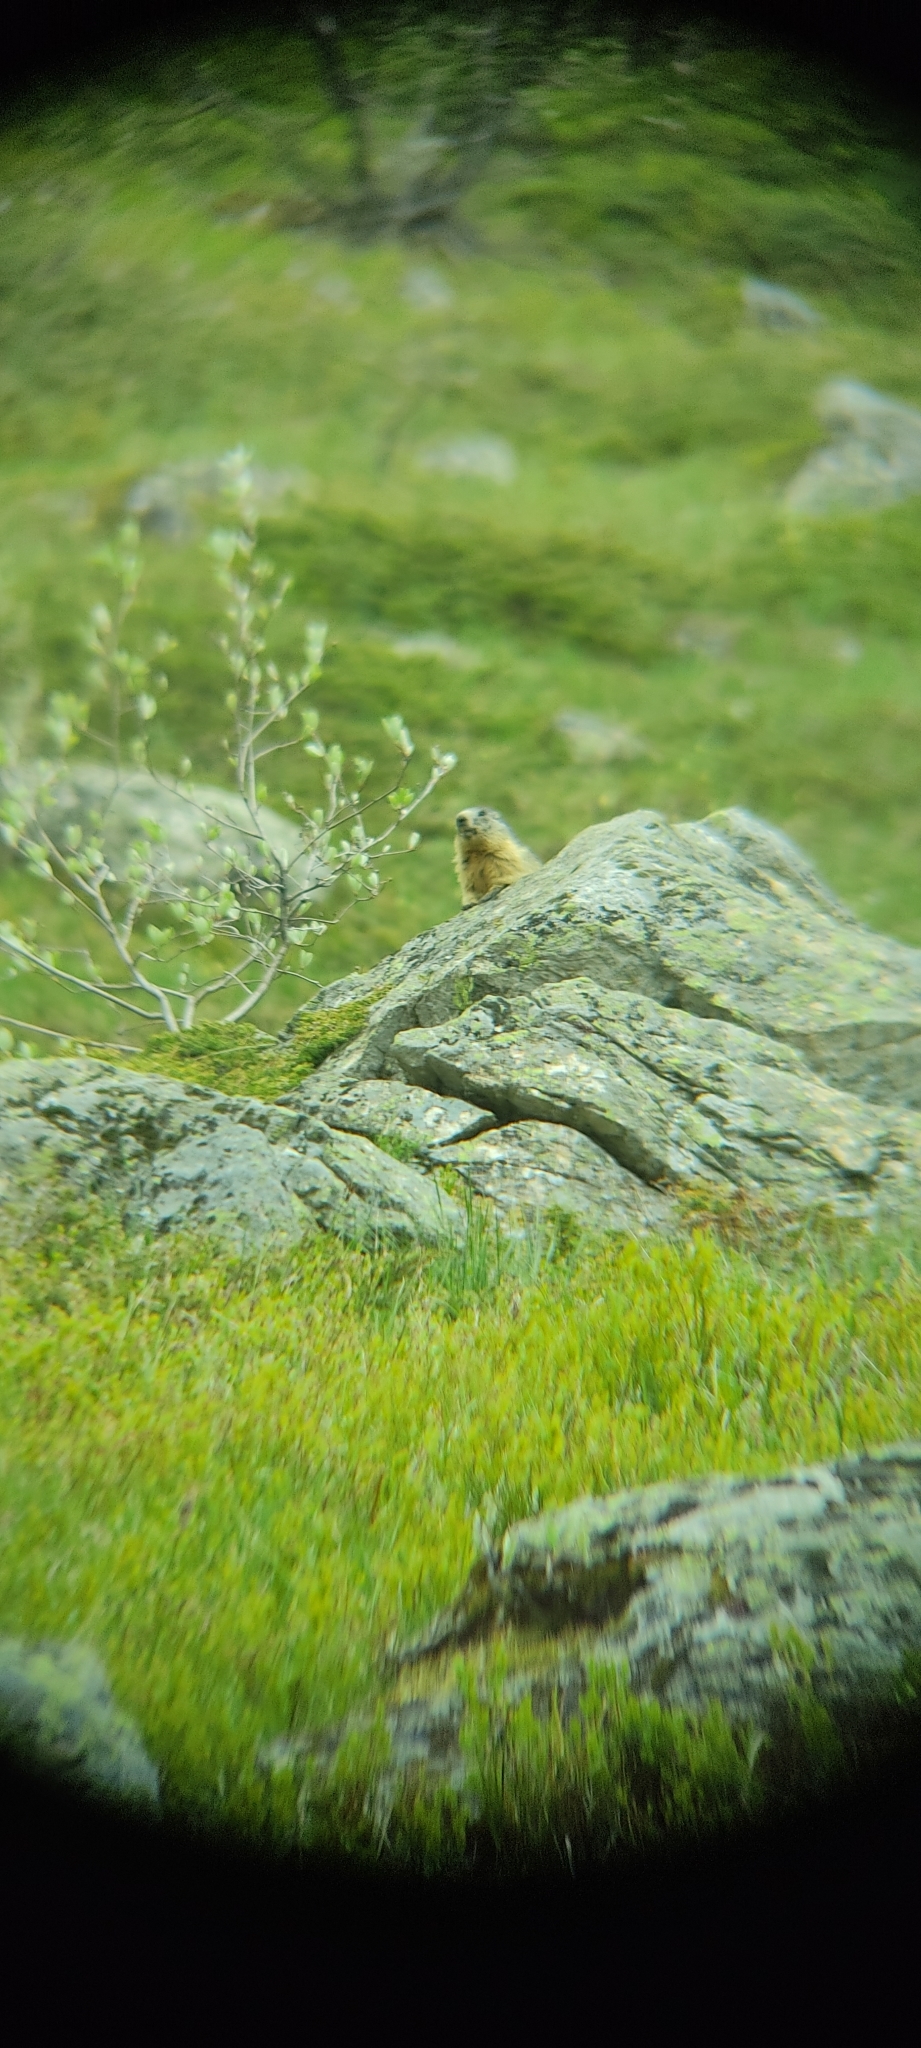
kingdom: Animalia
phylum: Chordata
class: Mammalia
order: Rodentia
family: Sciuridae
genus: Marmota
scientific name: Marmota marmota
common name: Alpine marmot
